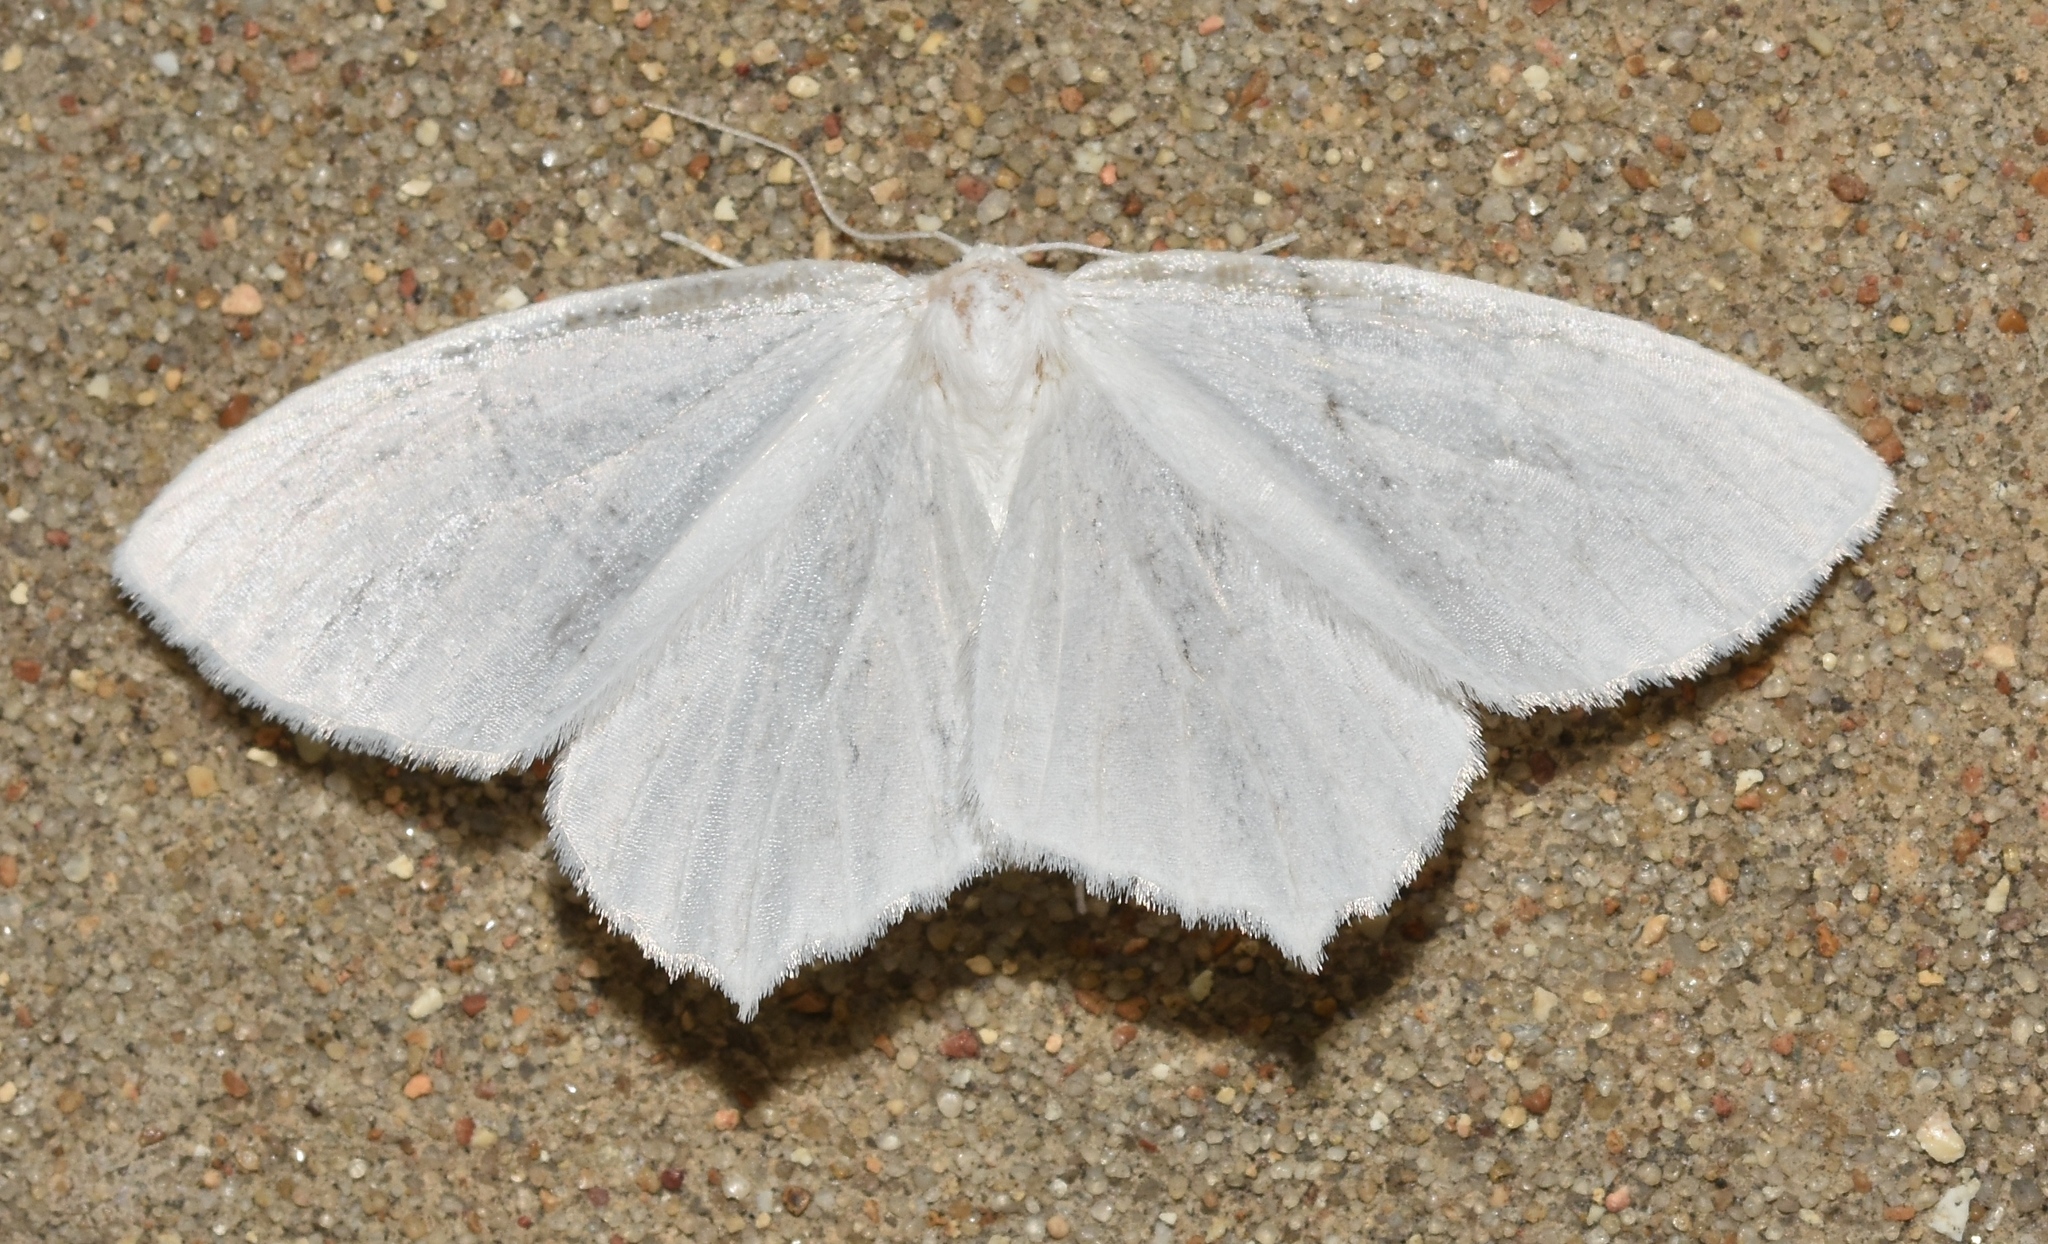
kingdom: Animalia
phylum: Arthropoda
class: Insecta
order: Lepidoptera
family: Geometridae
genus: Eugonobapta
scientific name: Eugonobapta nivosaria
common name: Snowy geometer
